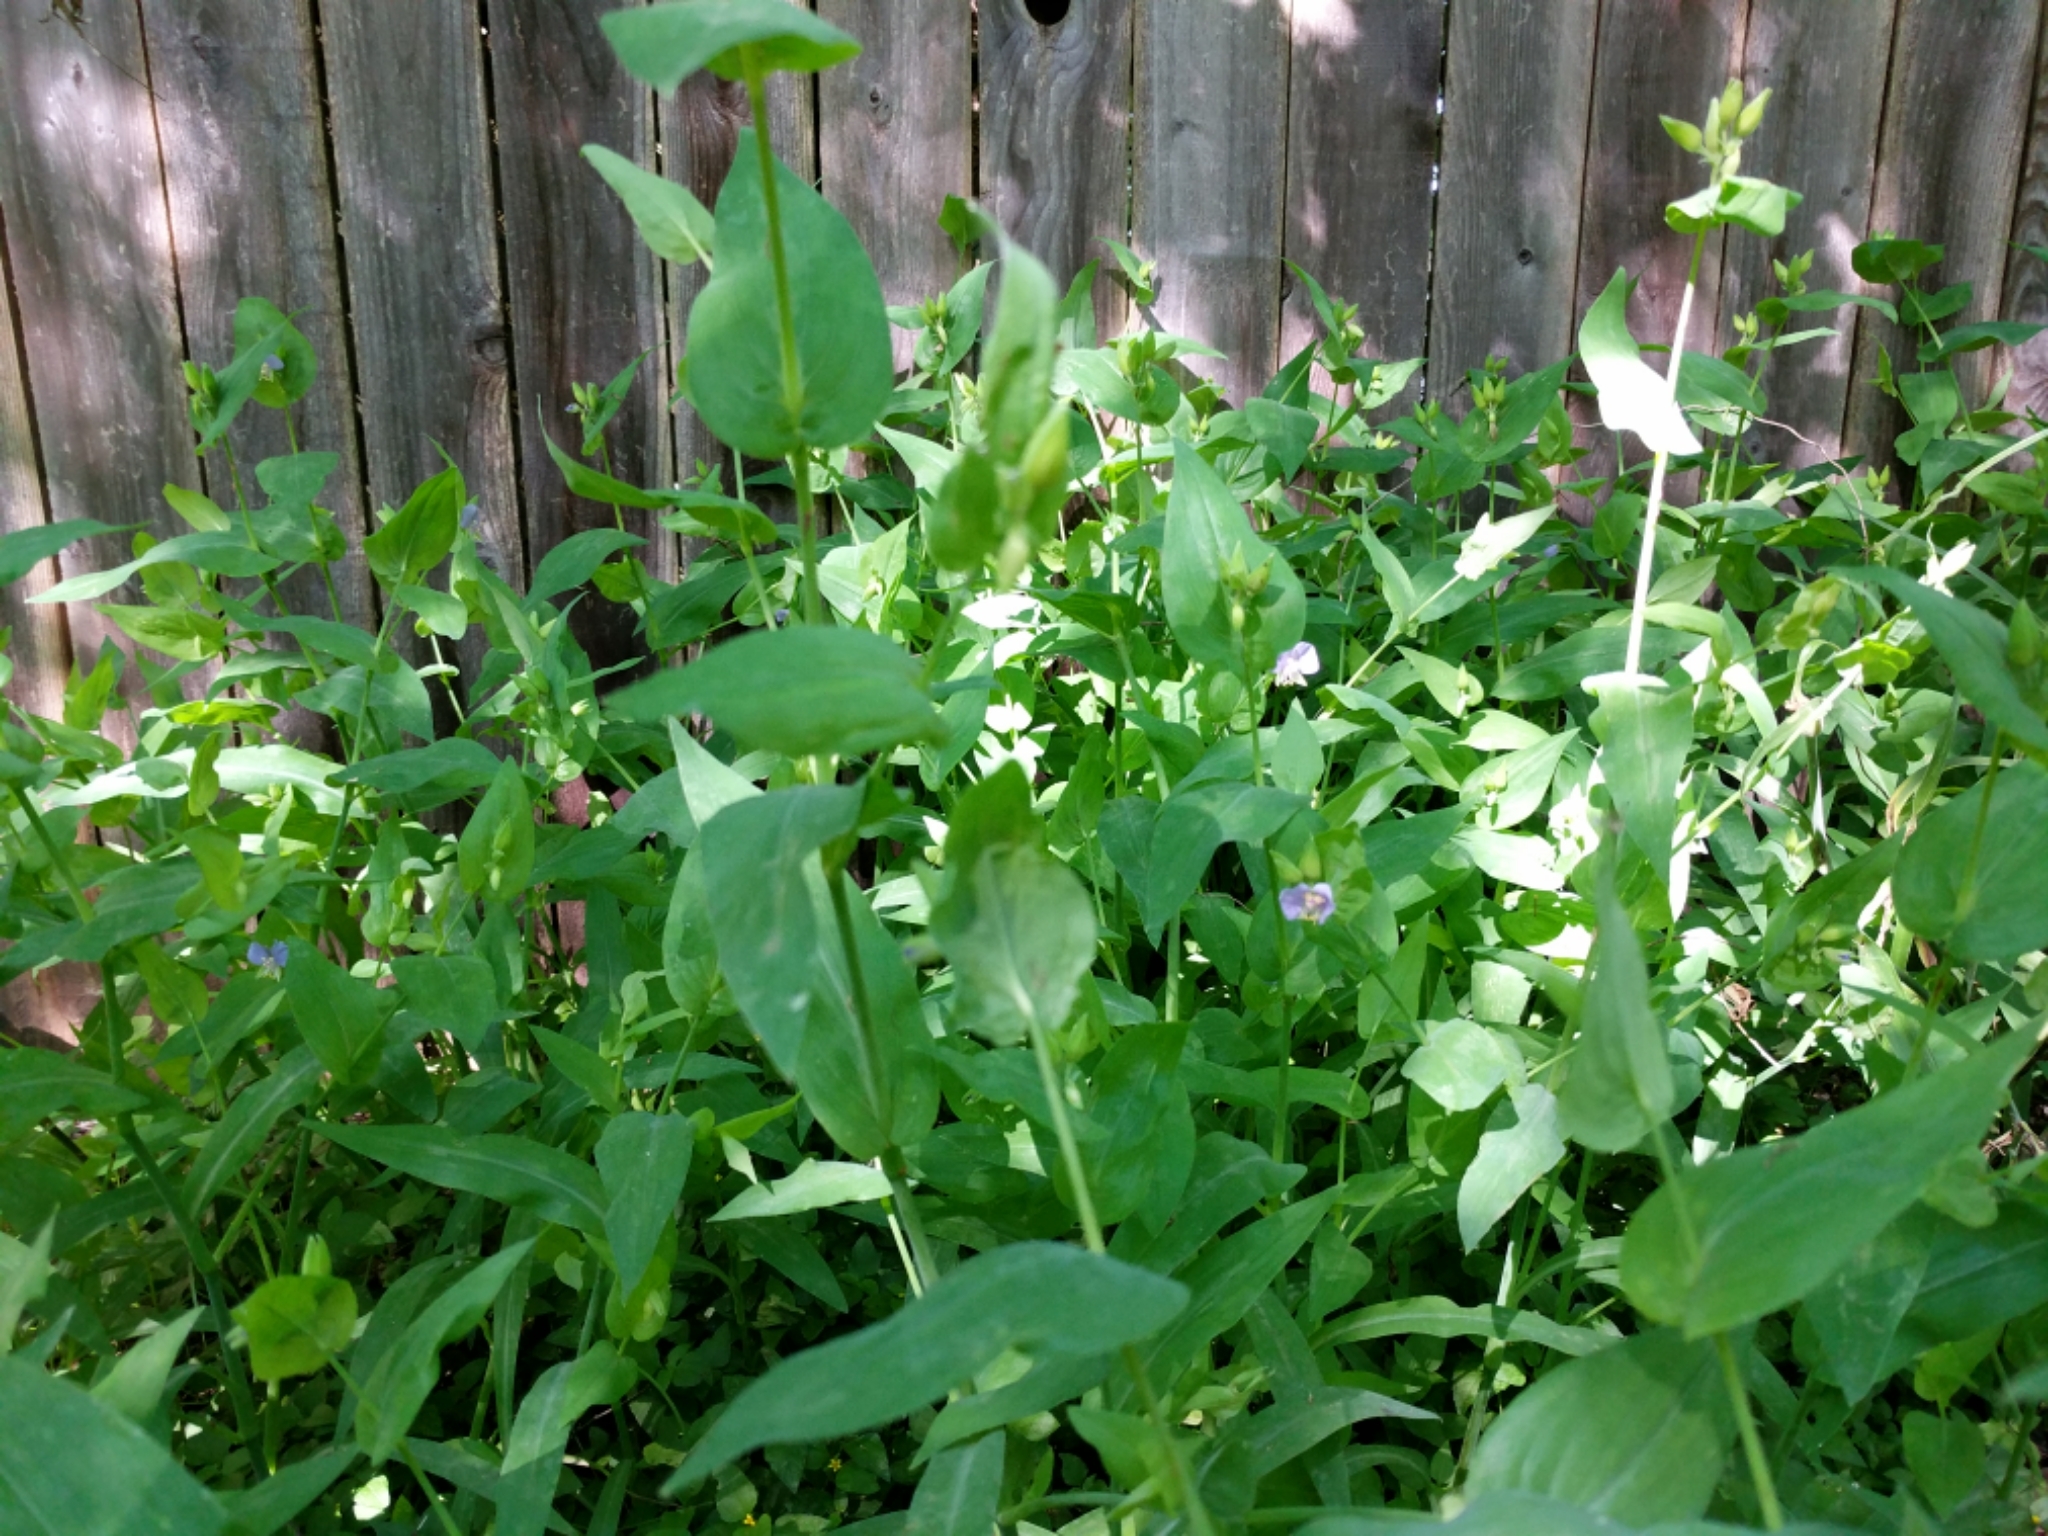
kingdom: Plantae
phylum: Tracheophyta
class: Liliopsida
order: Commelinales
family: Commelinaceae
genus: Tinantia
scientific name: Tinantia anomala
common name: False dayflower
